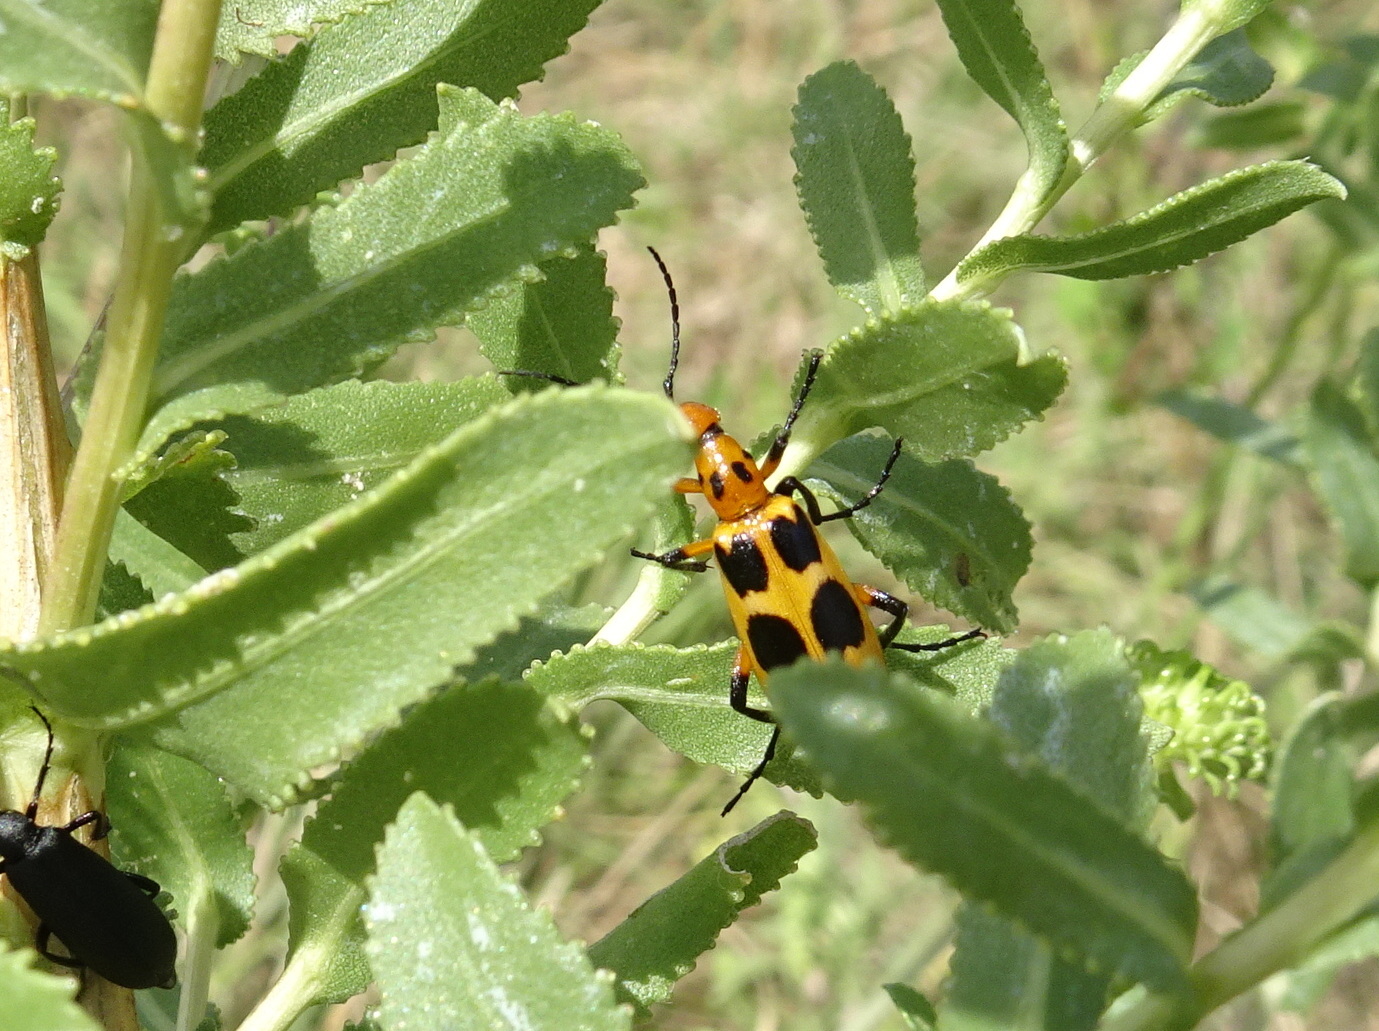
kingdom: Animalia
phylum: Arthropoda
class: Insecta
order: Coleoptera
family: Meloidae
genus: Pyrota
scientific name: Pyrota palpalis
